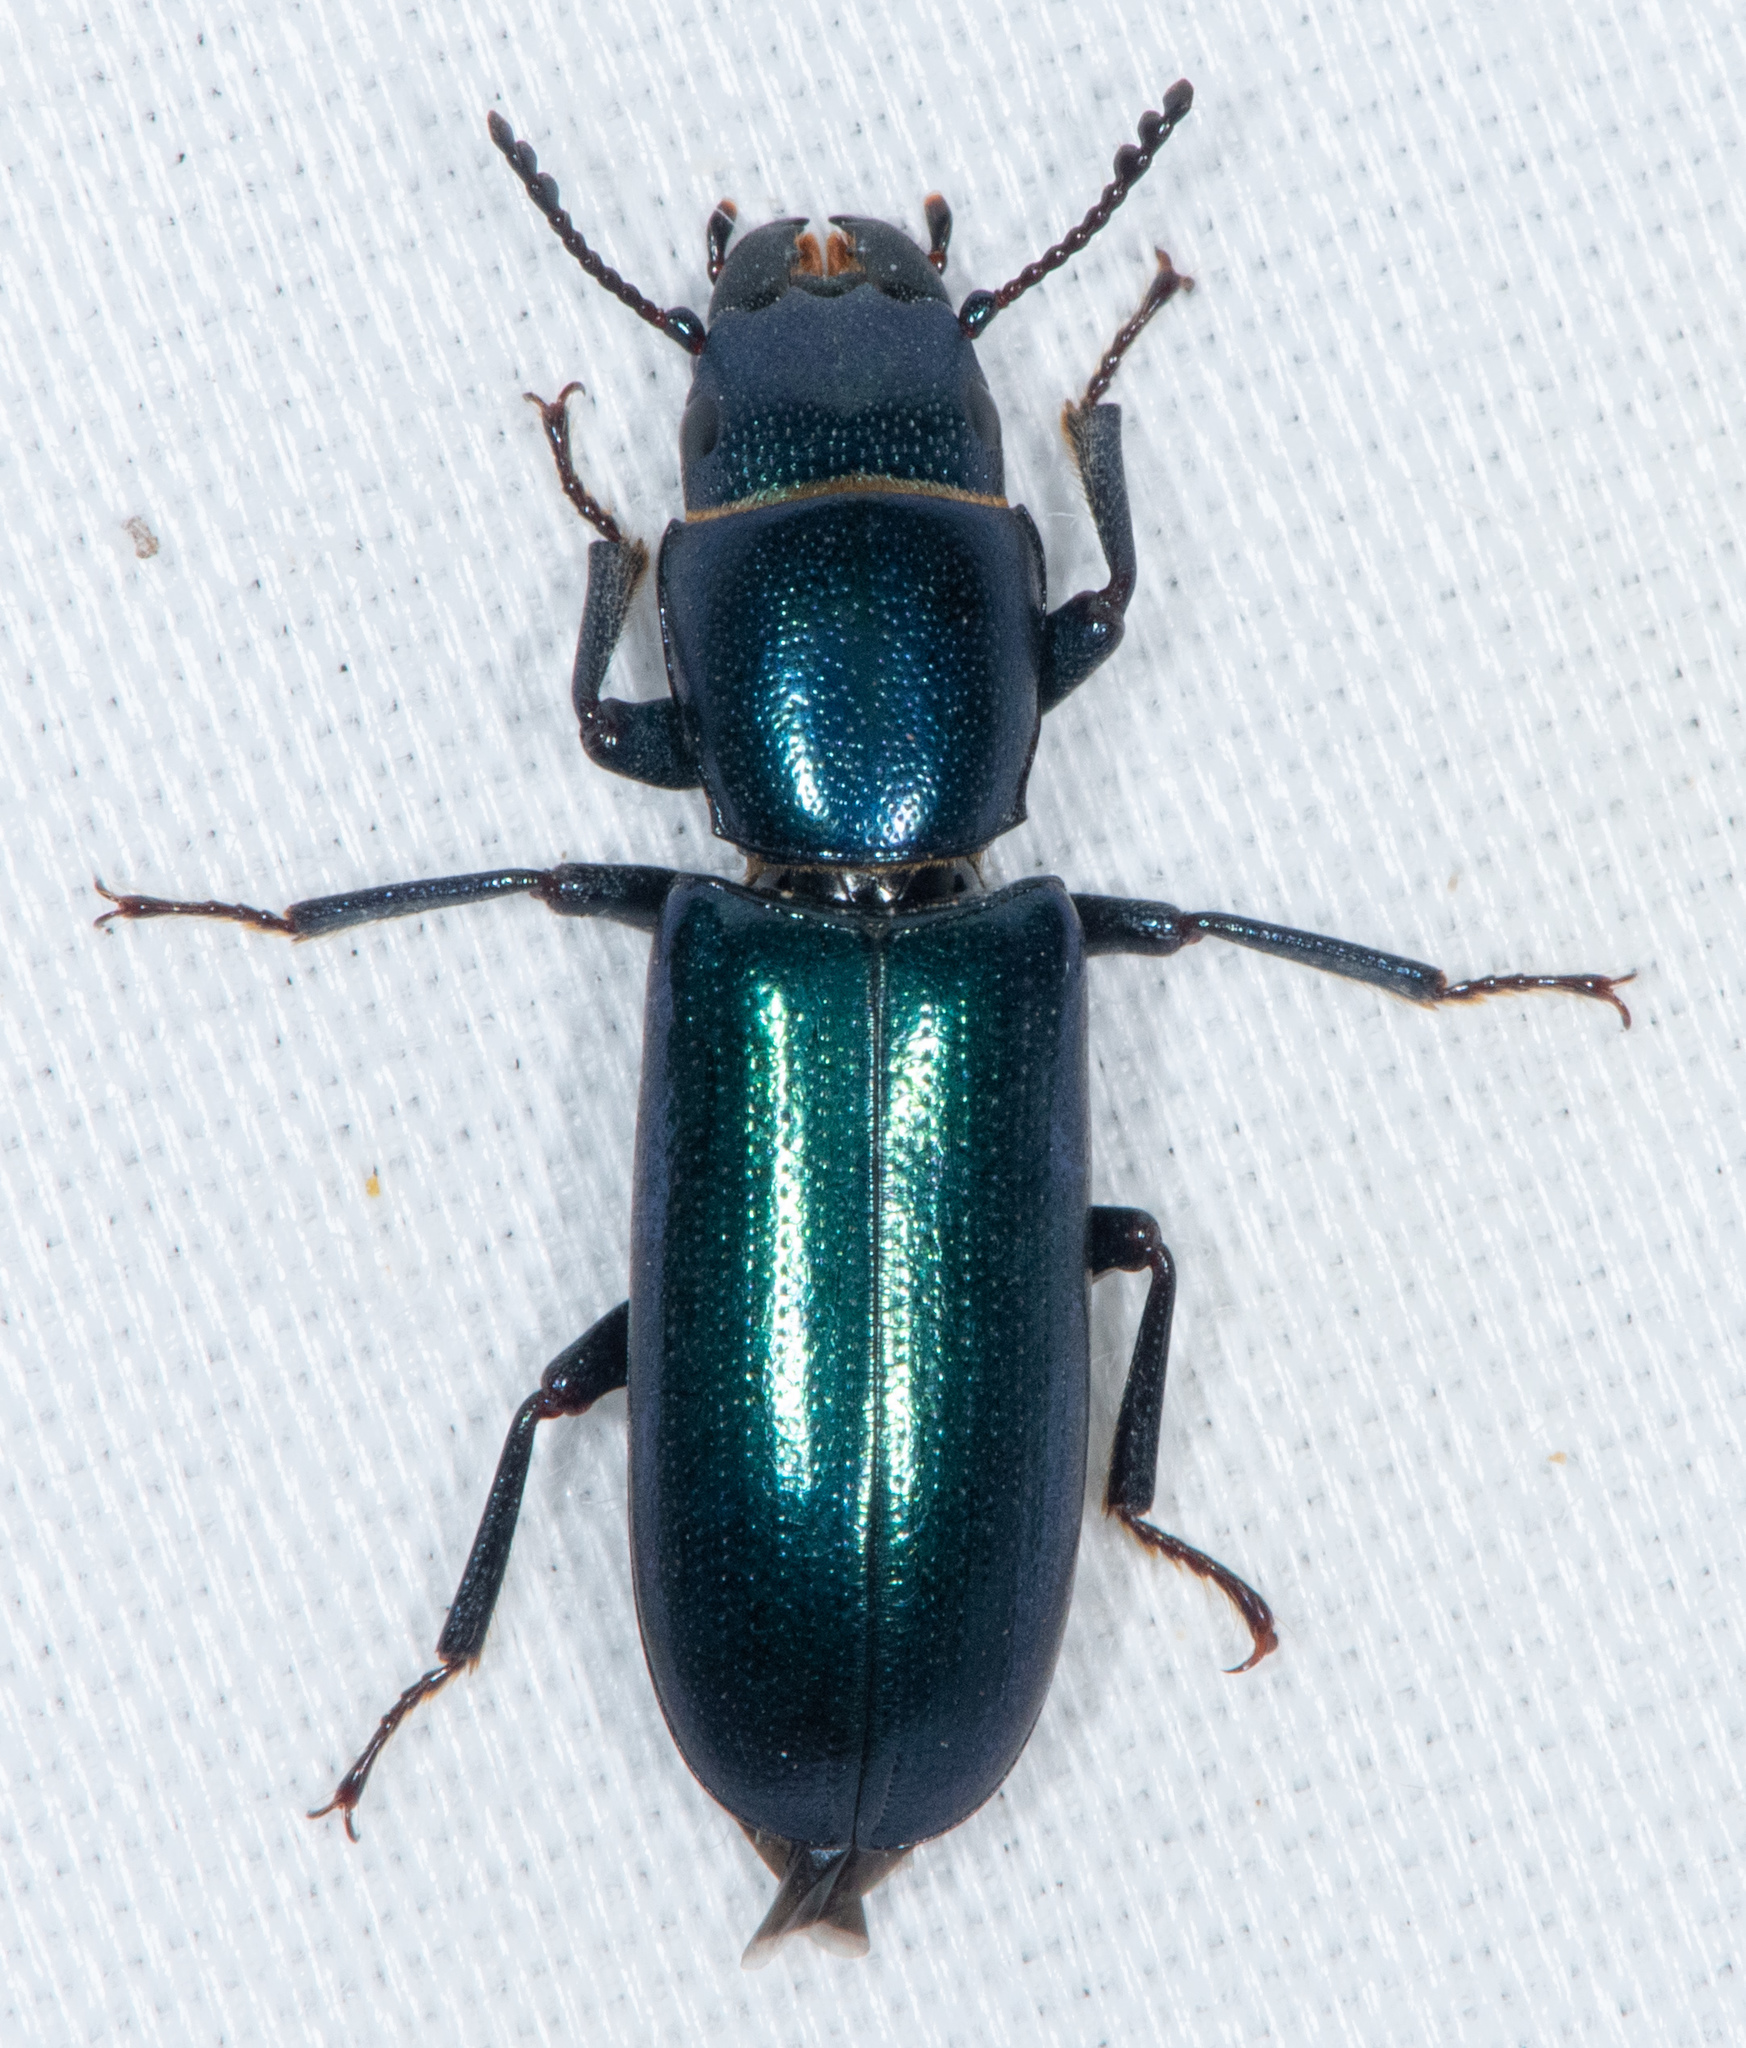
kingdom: Animalia
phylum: Arthropoda
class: Insecta
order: Coleoptera
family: Trogossitidae
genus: Temnoscheila
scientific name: Temnoscheila chlorodia
